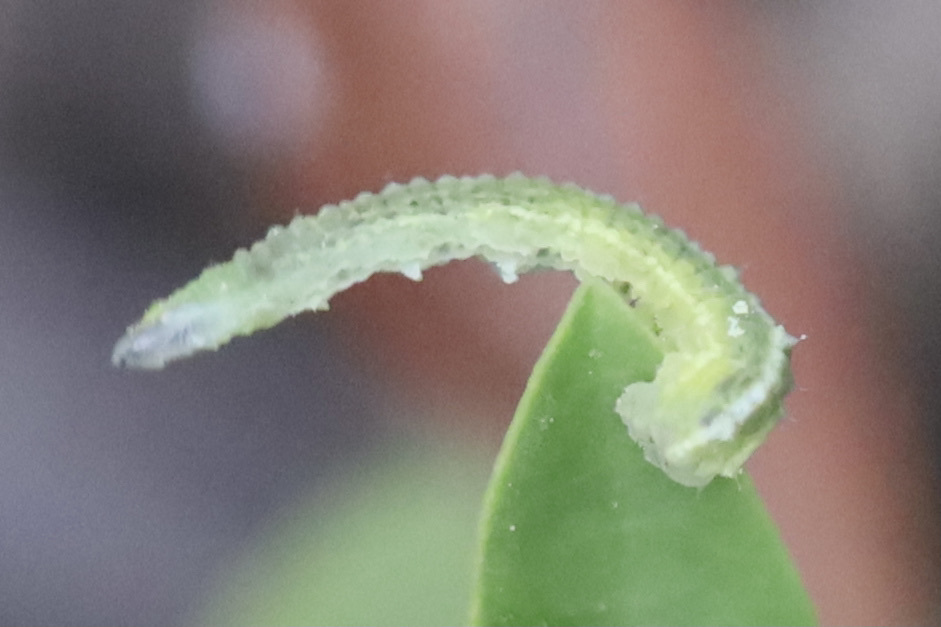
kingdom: Animalia
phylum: Arthropoda
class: Insecta
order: Diptera
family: Syrphidae
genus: Scaeva
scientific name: Scaeva affinis
